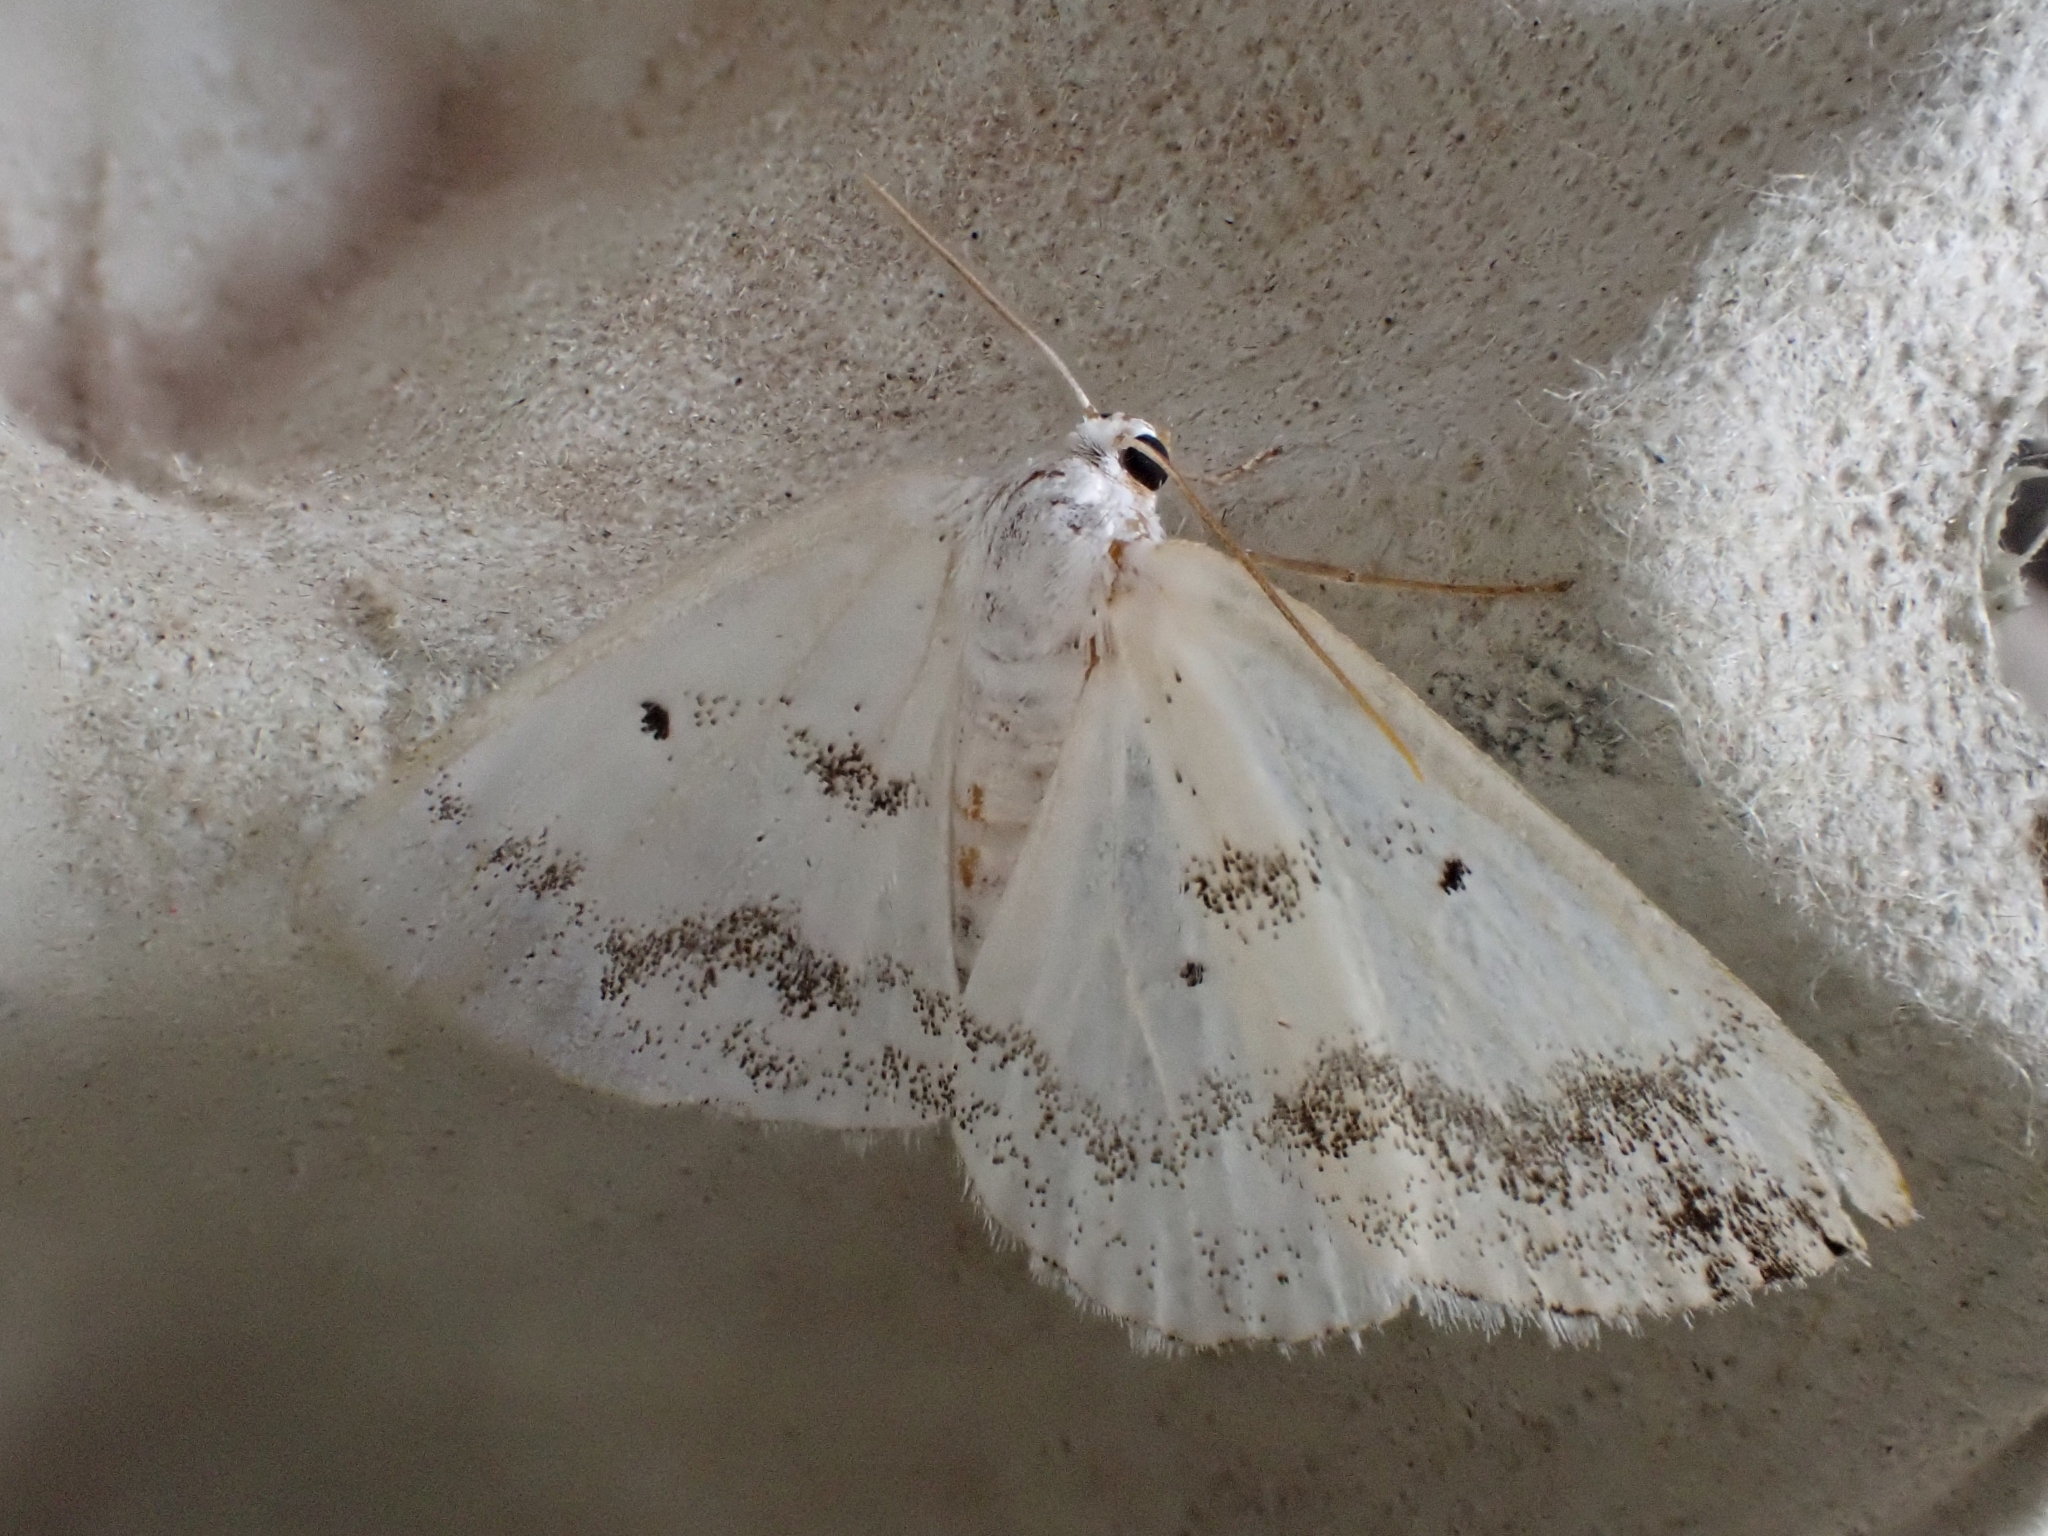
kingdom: Animalia
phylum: Arthropoda
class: Insecta
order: Lepidoptera
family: Geometridae
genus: Lomographa
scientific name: Lomographa temerata
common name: Clouded silver
